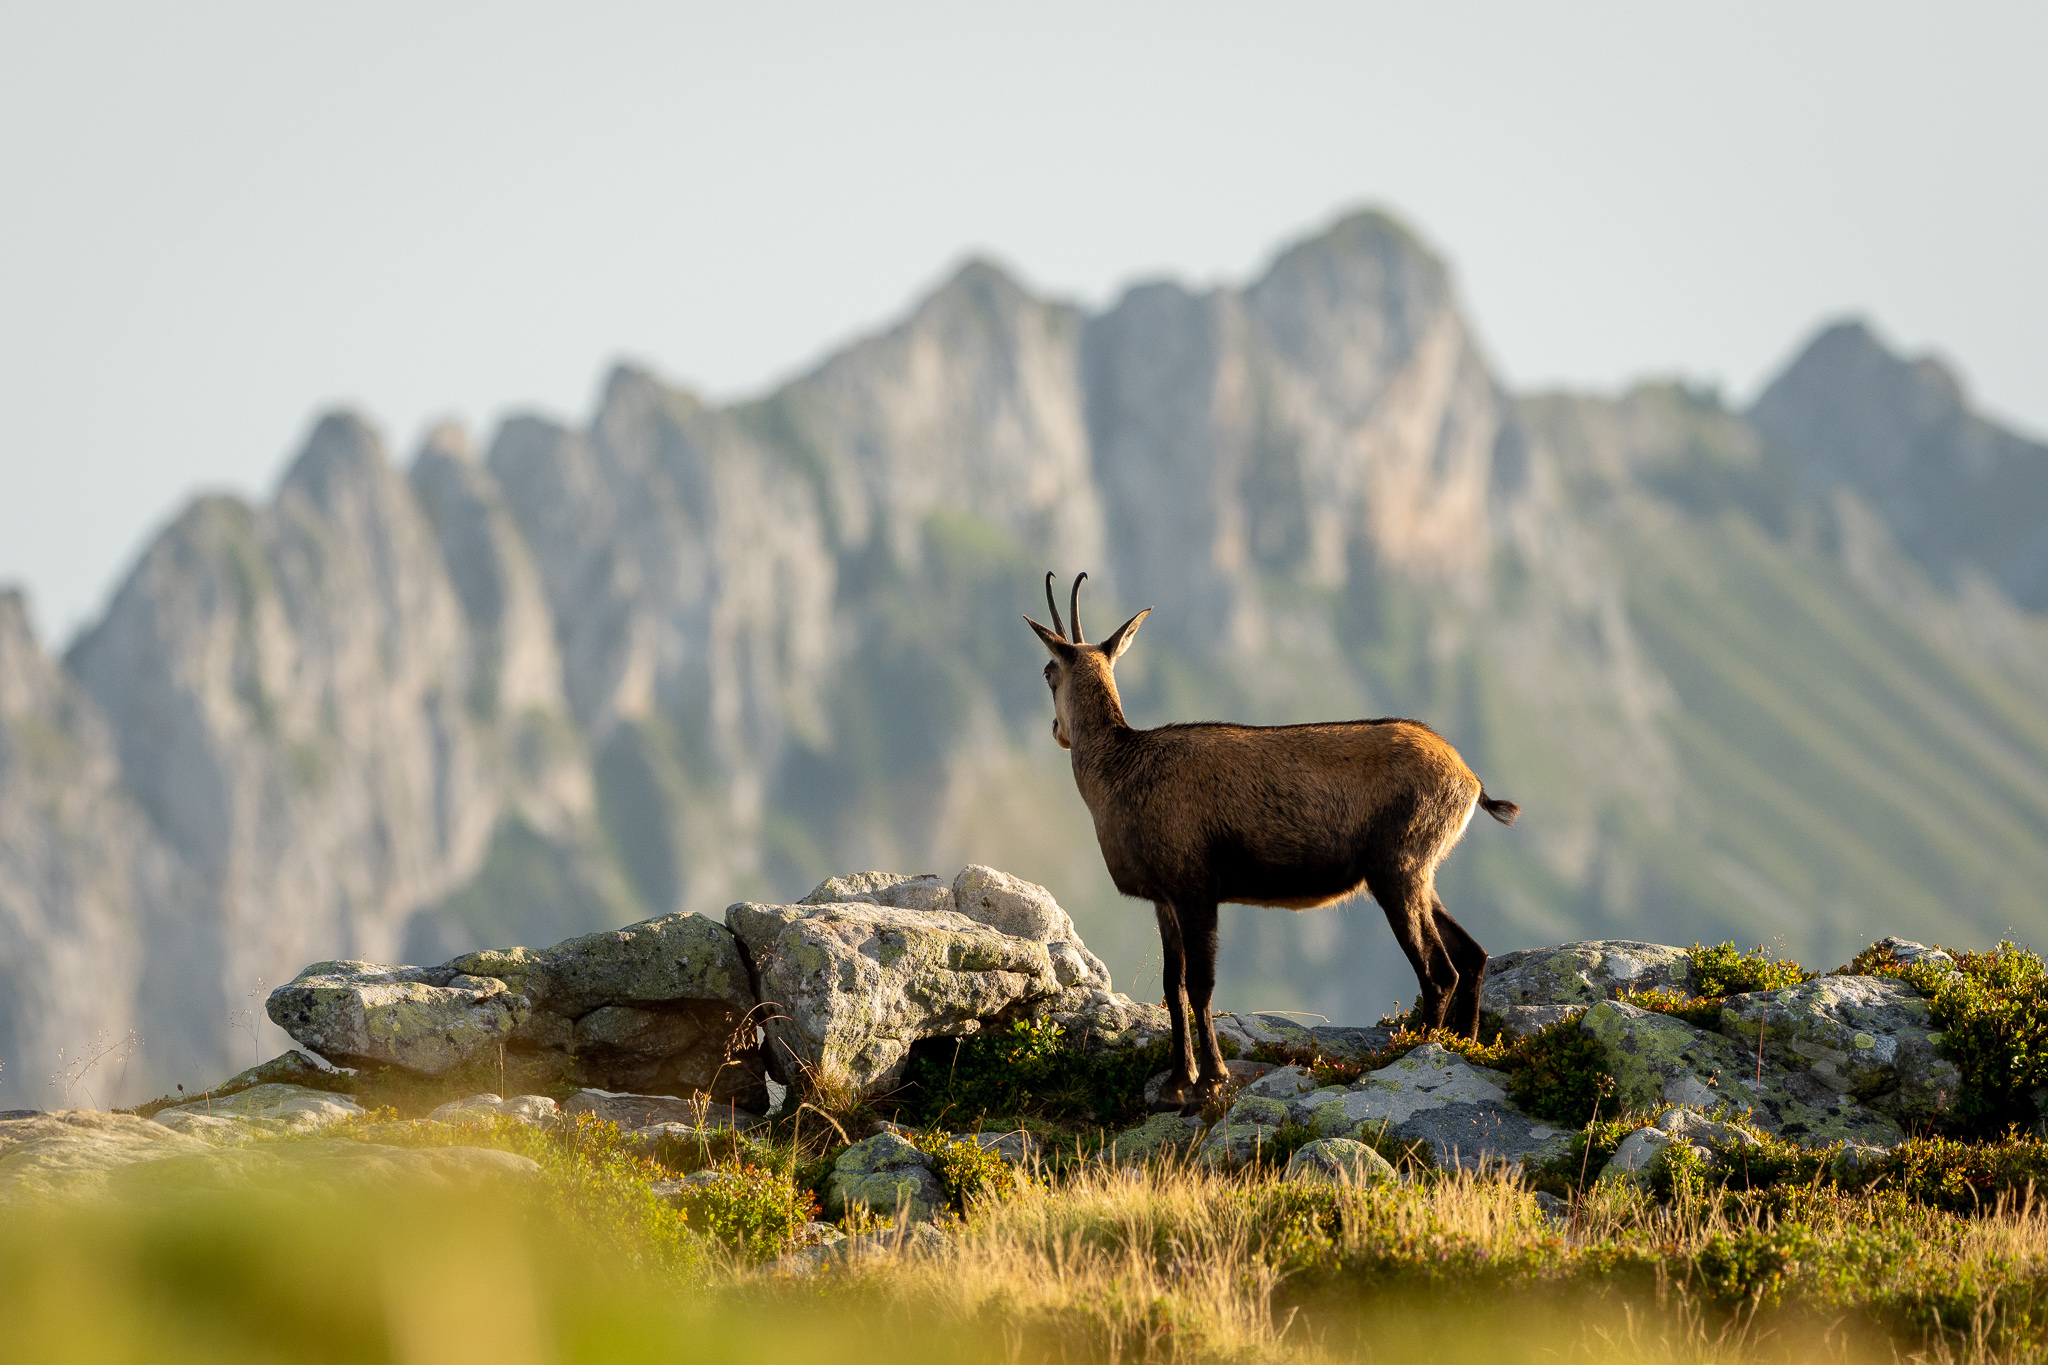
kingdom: Animalia
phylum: Chordata
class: Mammalia
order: Artiodactyla
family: Bovidae
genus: Rupicapra
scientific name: Rupicapra rupicapra
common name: Chamois
